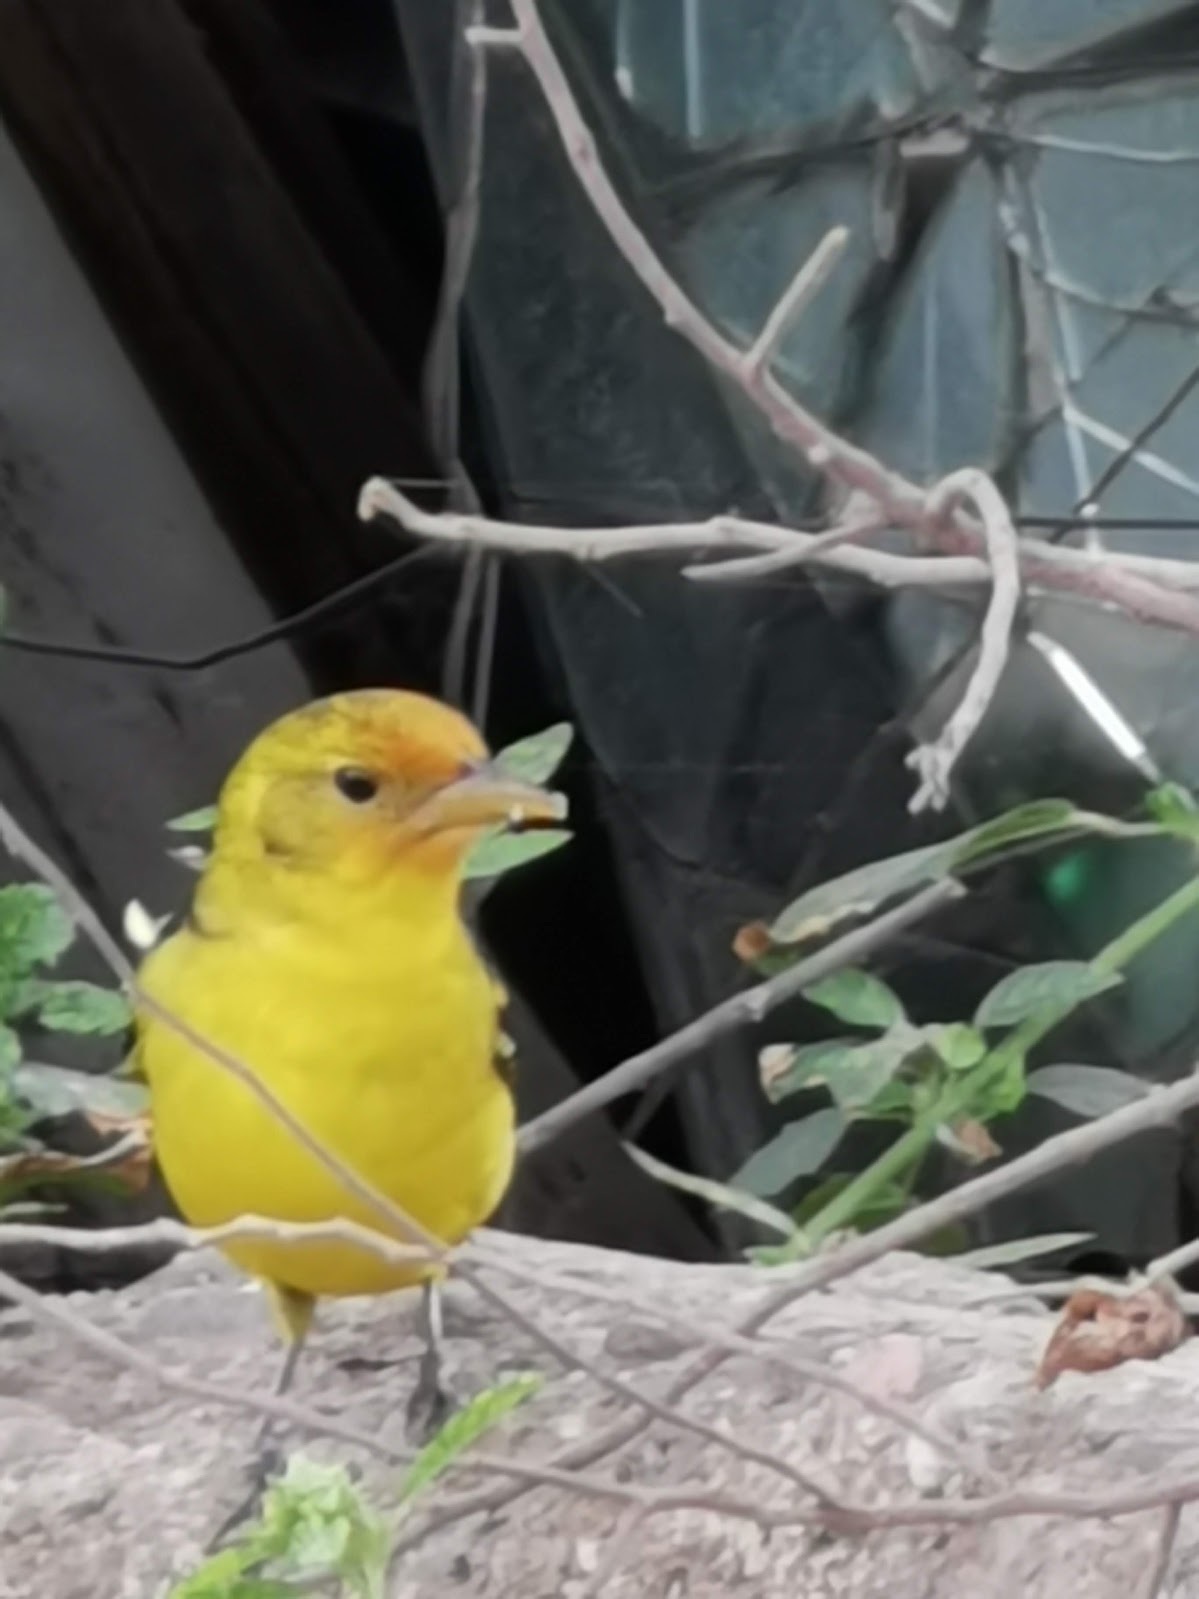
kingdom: Animalia
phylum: Chordata
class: Aves
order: Passeriformes
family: Cardinalidae
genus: Piranga
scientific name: Piranga ludoviciana
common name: Western tanager
